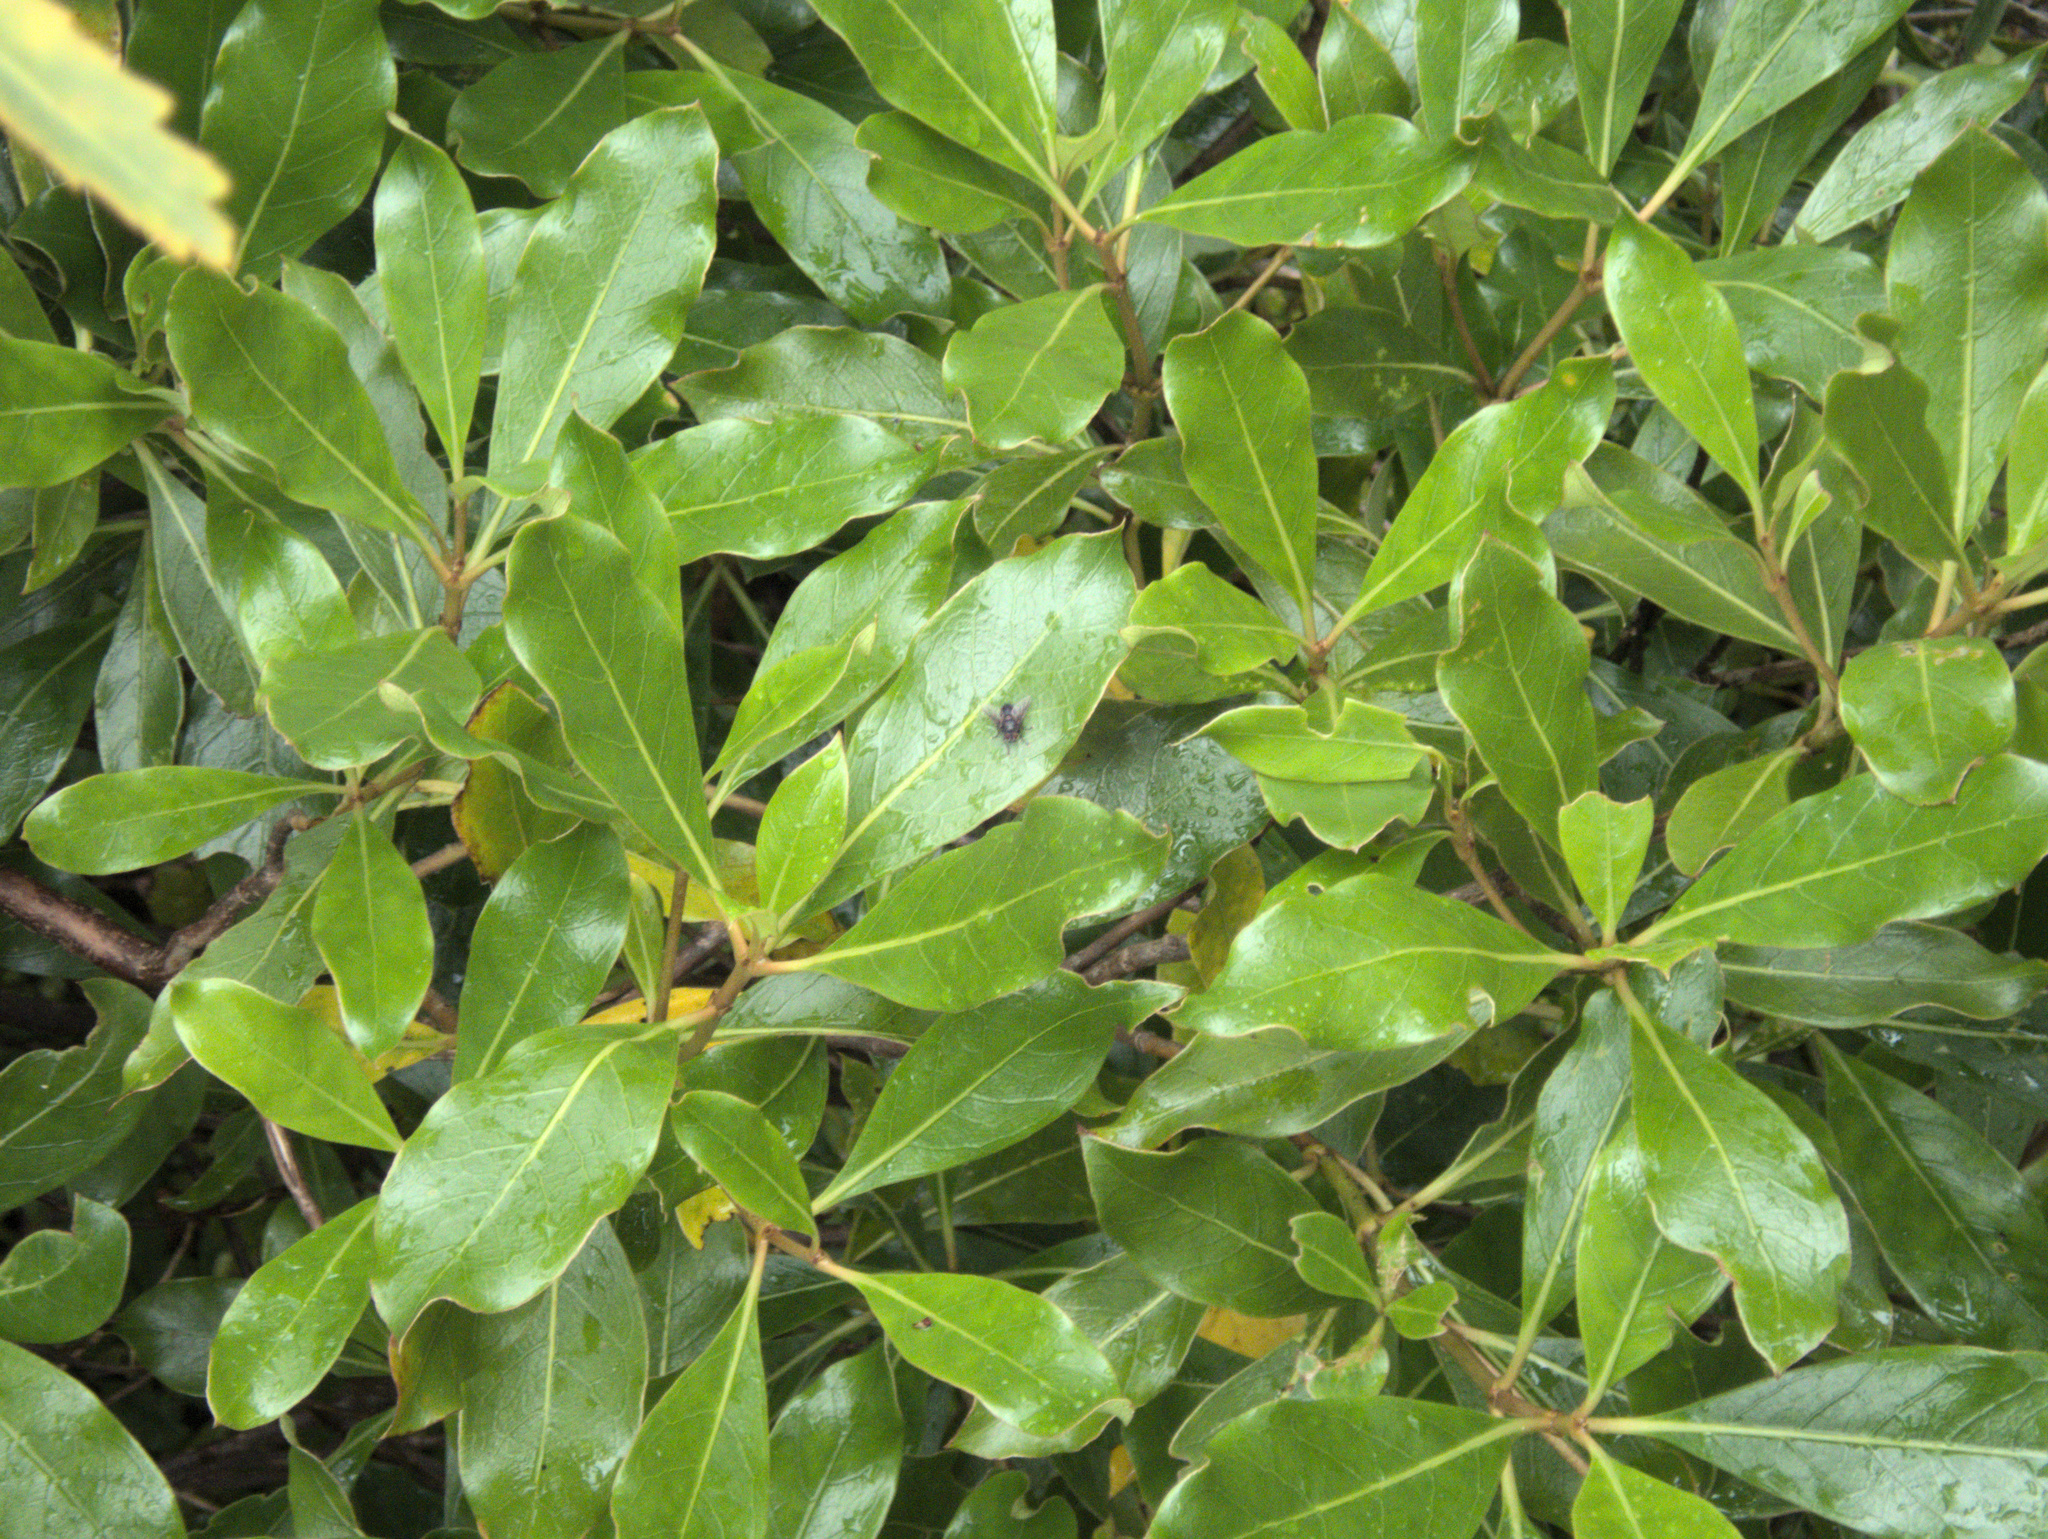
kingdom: Plantae
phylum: Tracheophyta
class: Magnoliopsida
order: Gentianales
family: Rubiaceae
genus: Coprosma
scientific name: Coprosma lucida
